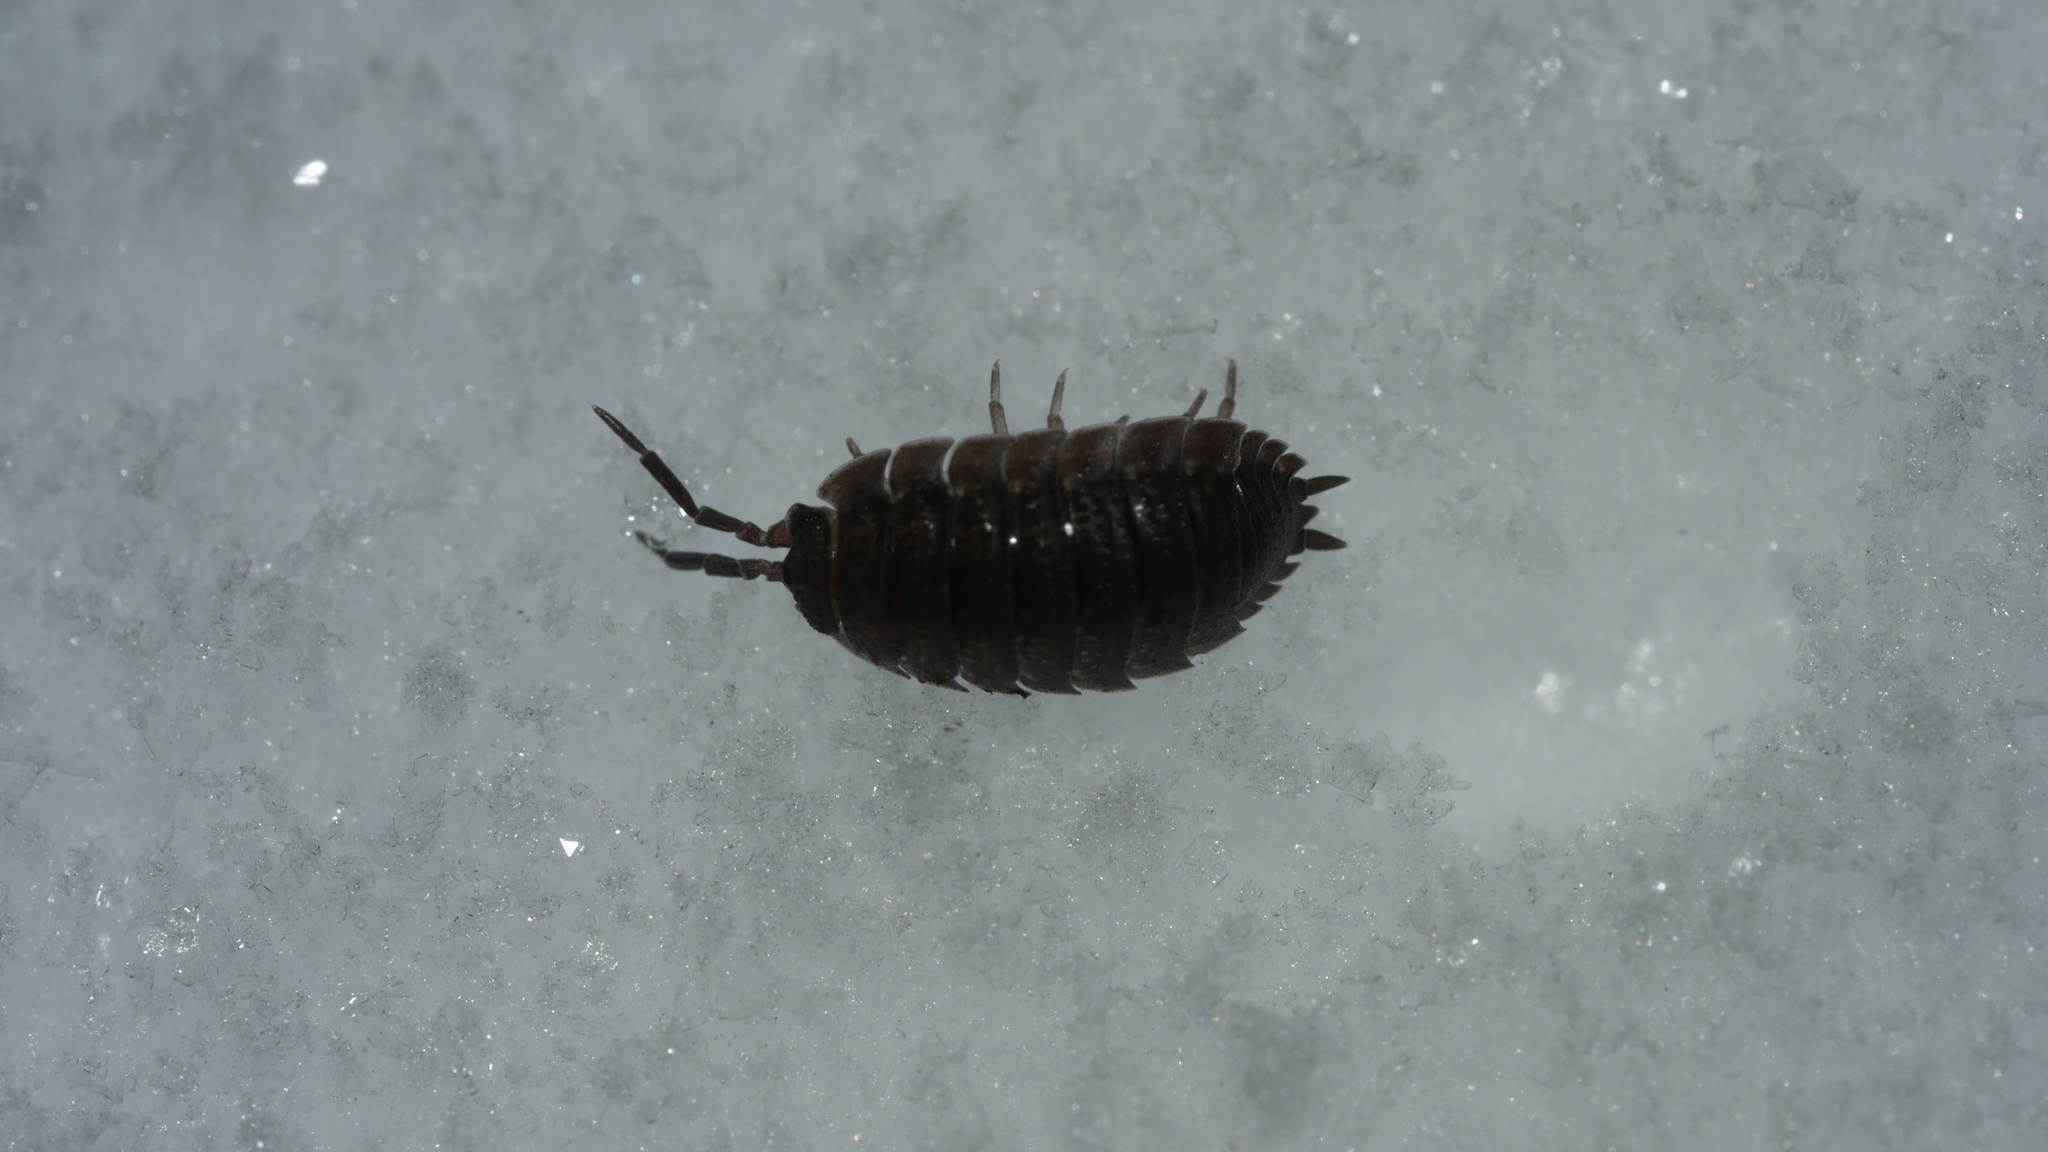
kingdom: Animalia
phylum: Arthropoda
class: Malacostraca
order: Isopoda
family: Porcellionidae
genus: Porcellio
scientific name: Porcellio scaber
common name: Common rough woodlouse
